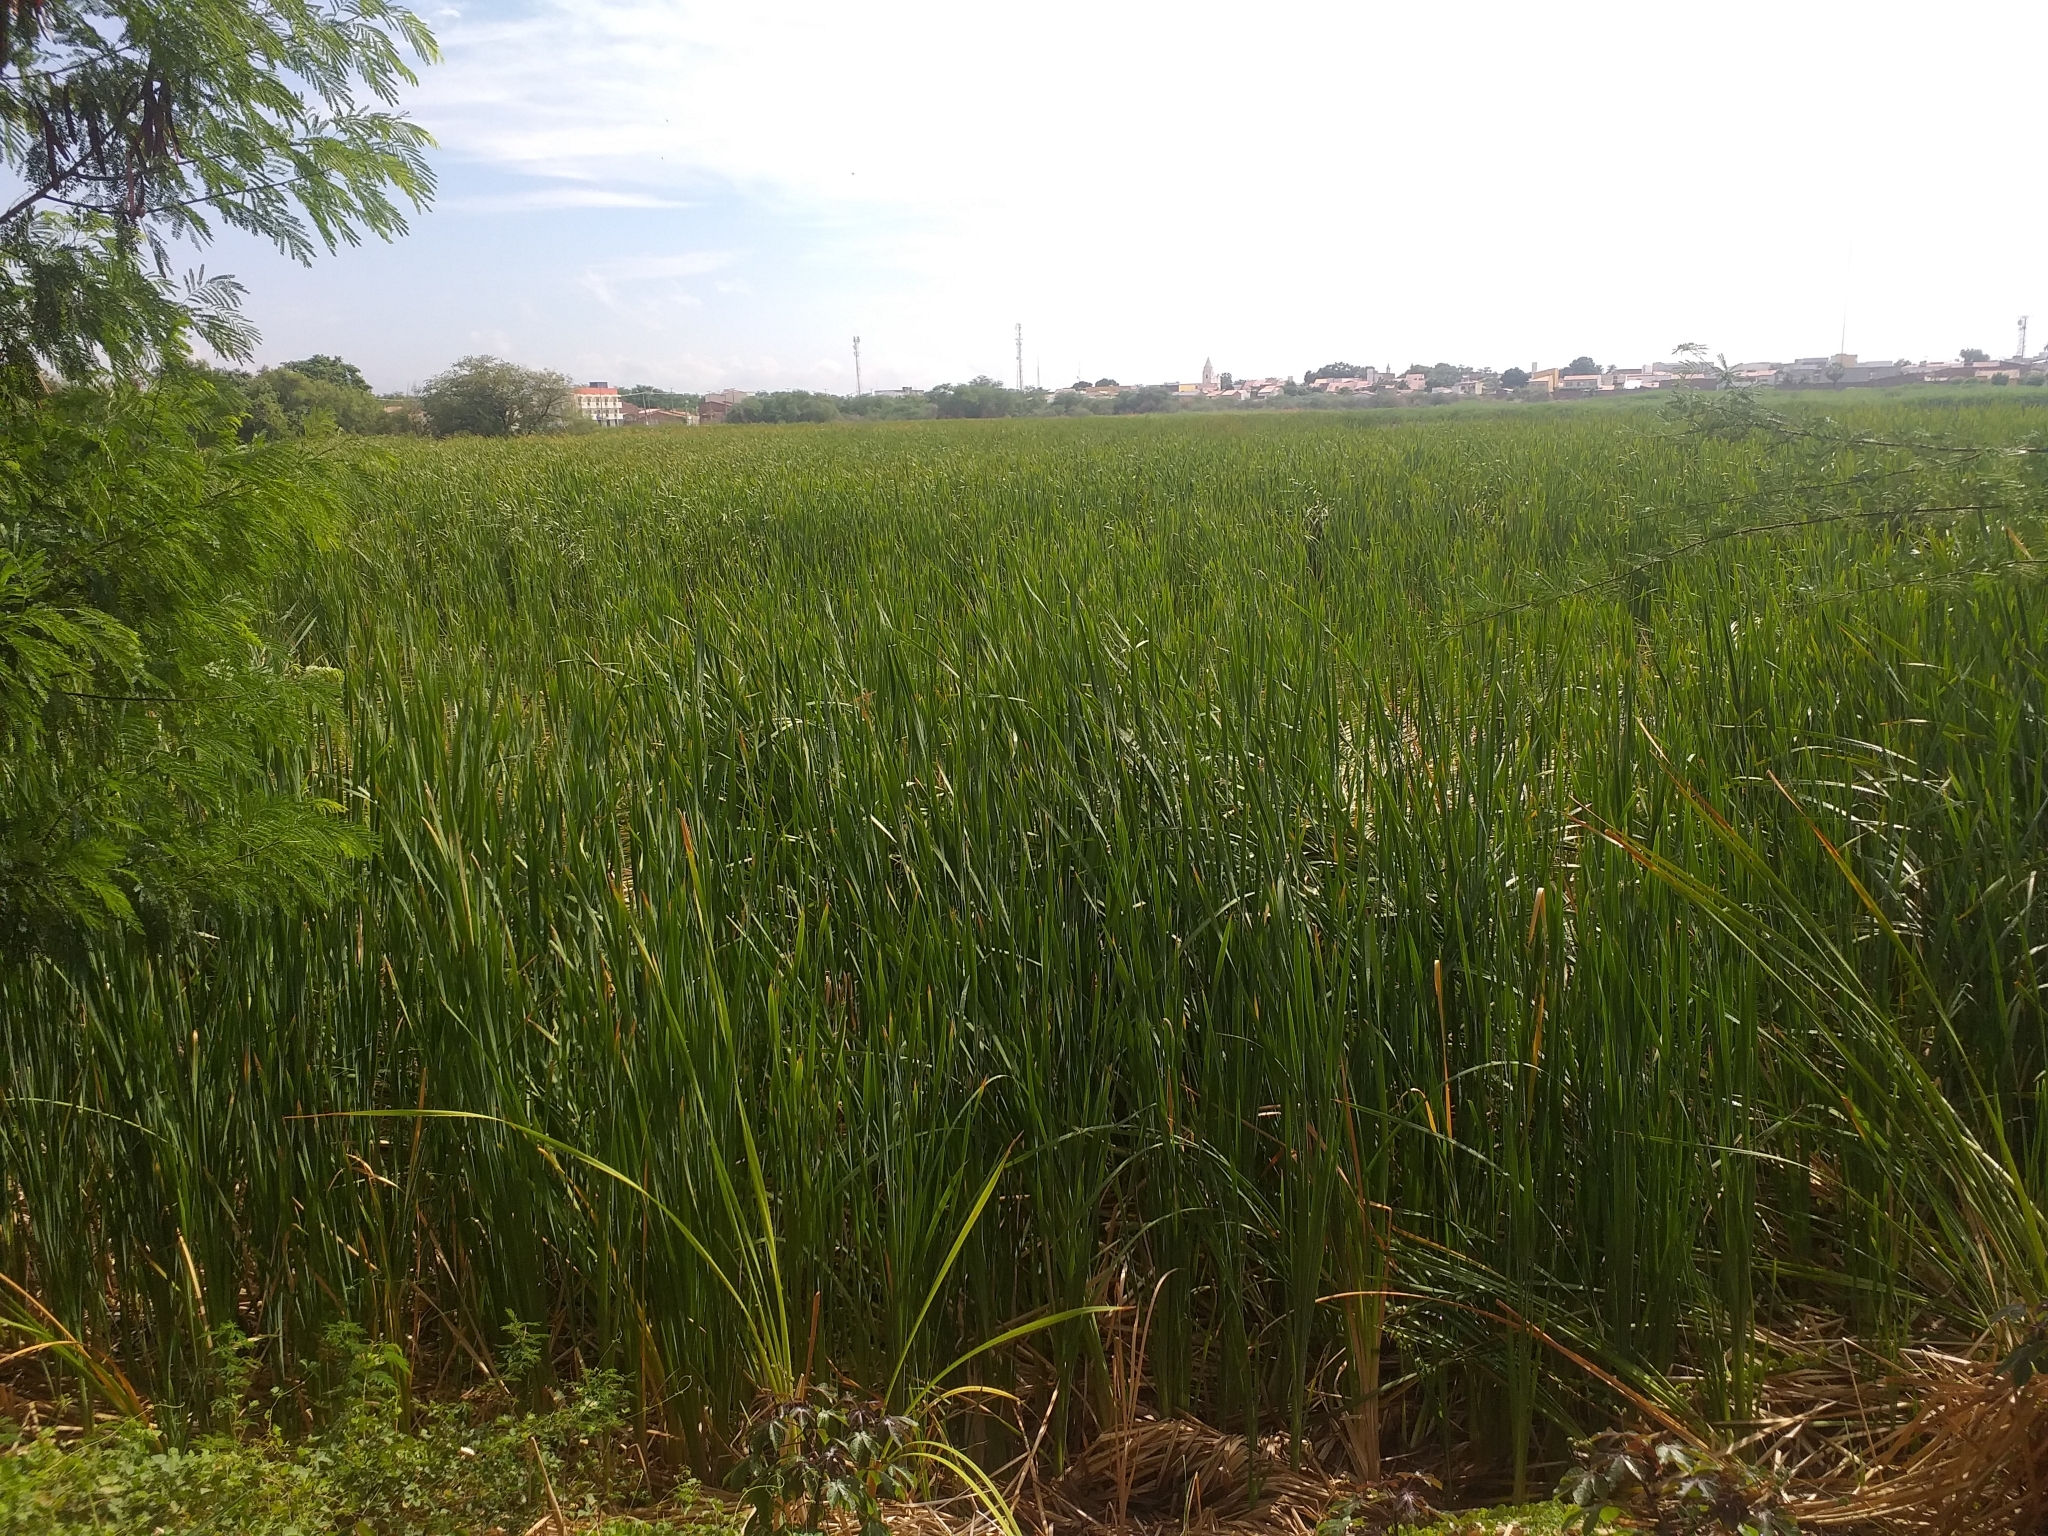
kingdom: Plantae
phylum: Tracheophyta
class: Liliopsida
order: Poales
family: Typhaceae
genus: Typha
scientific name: Typha
